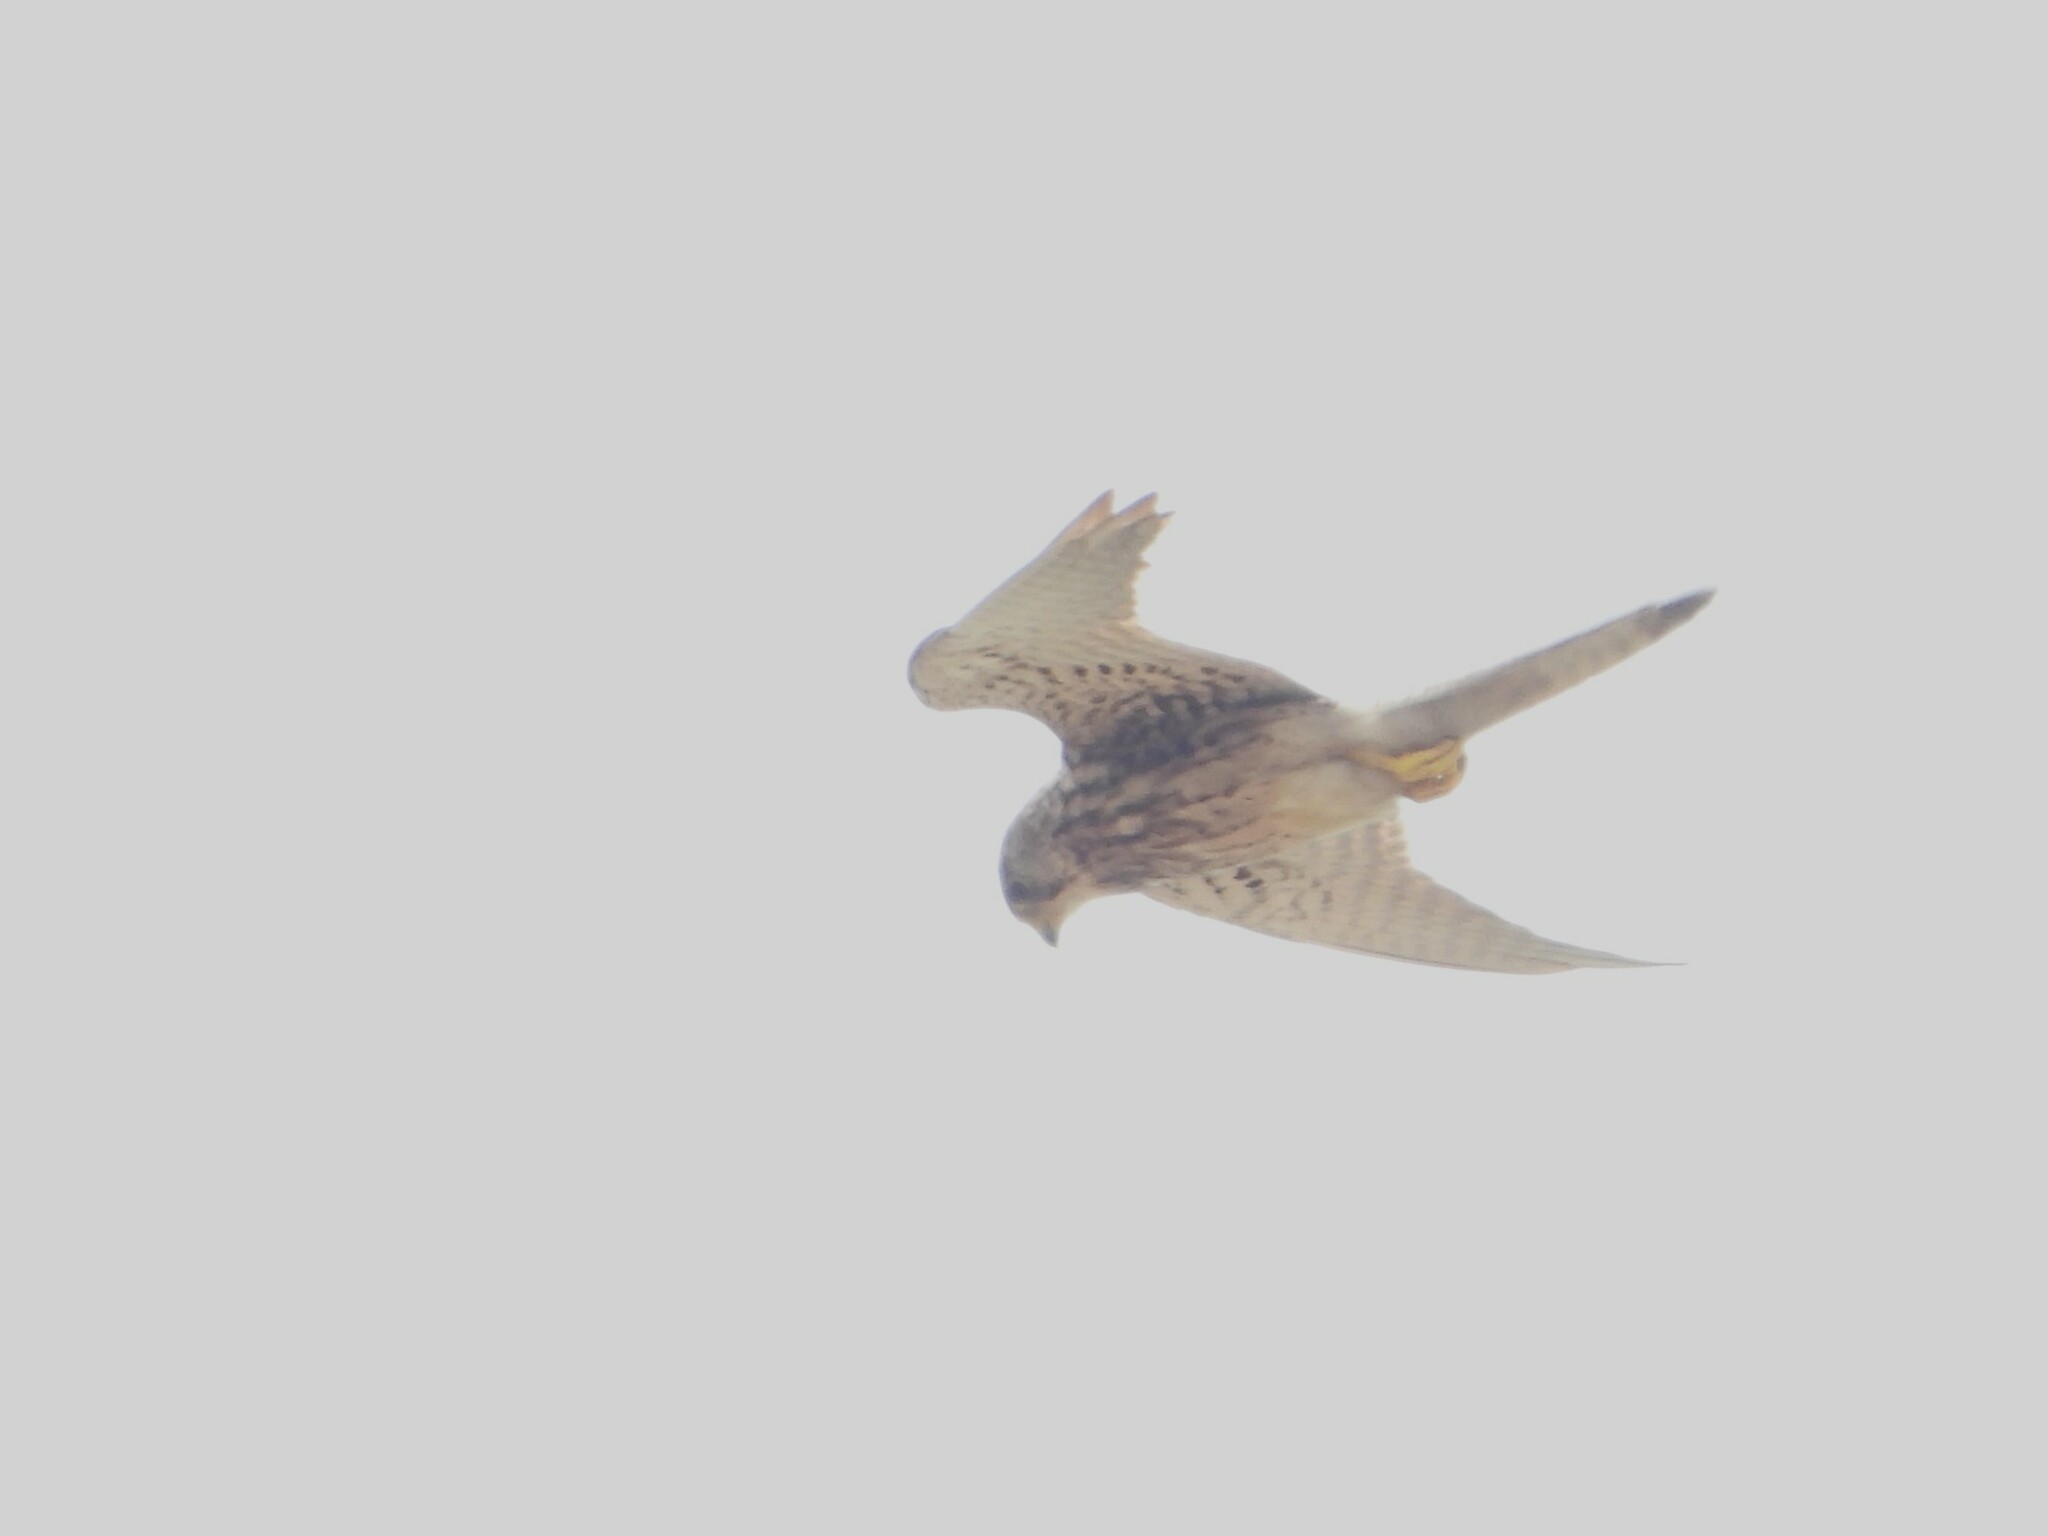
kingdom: Animalia
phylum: Chordata
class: Aves
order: Falconiformes
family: Falconidae
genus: Falco
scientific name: Falco tinnunculus
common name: Common kestrel
